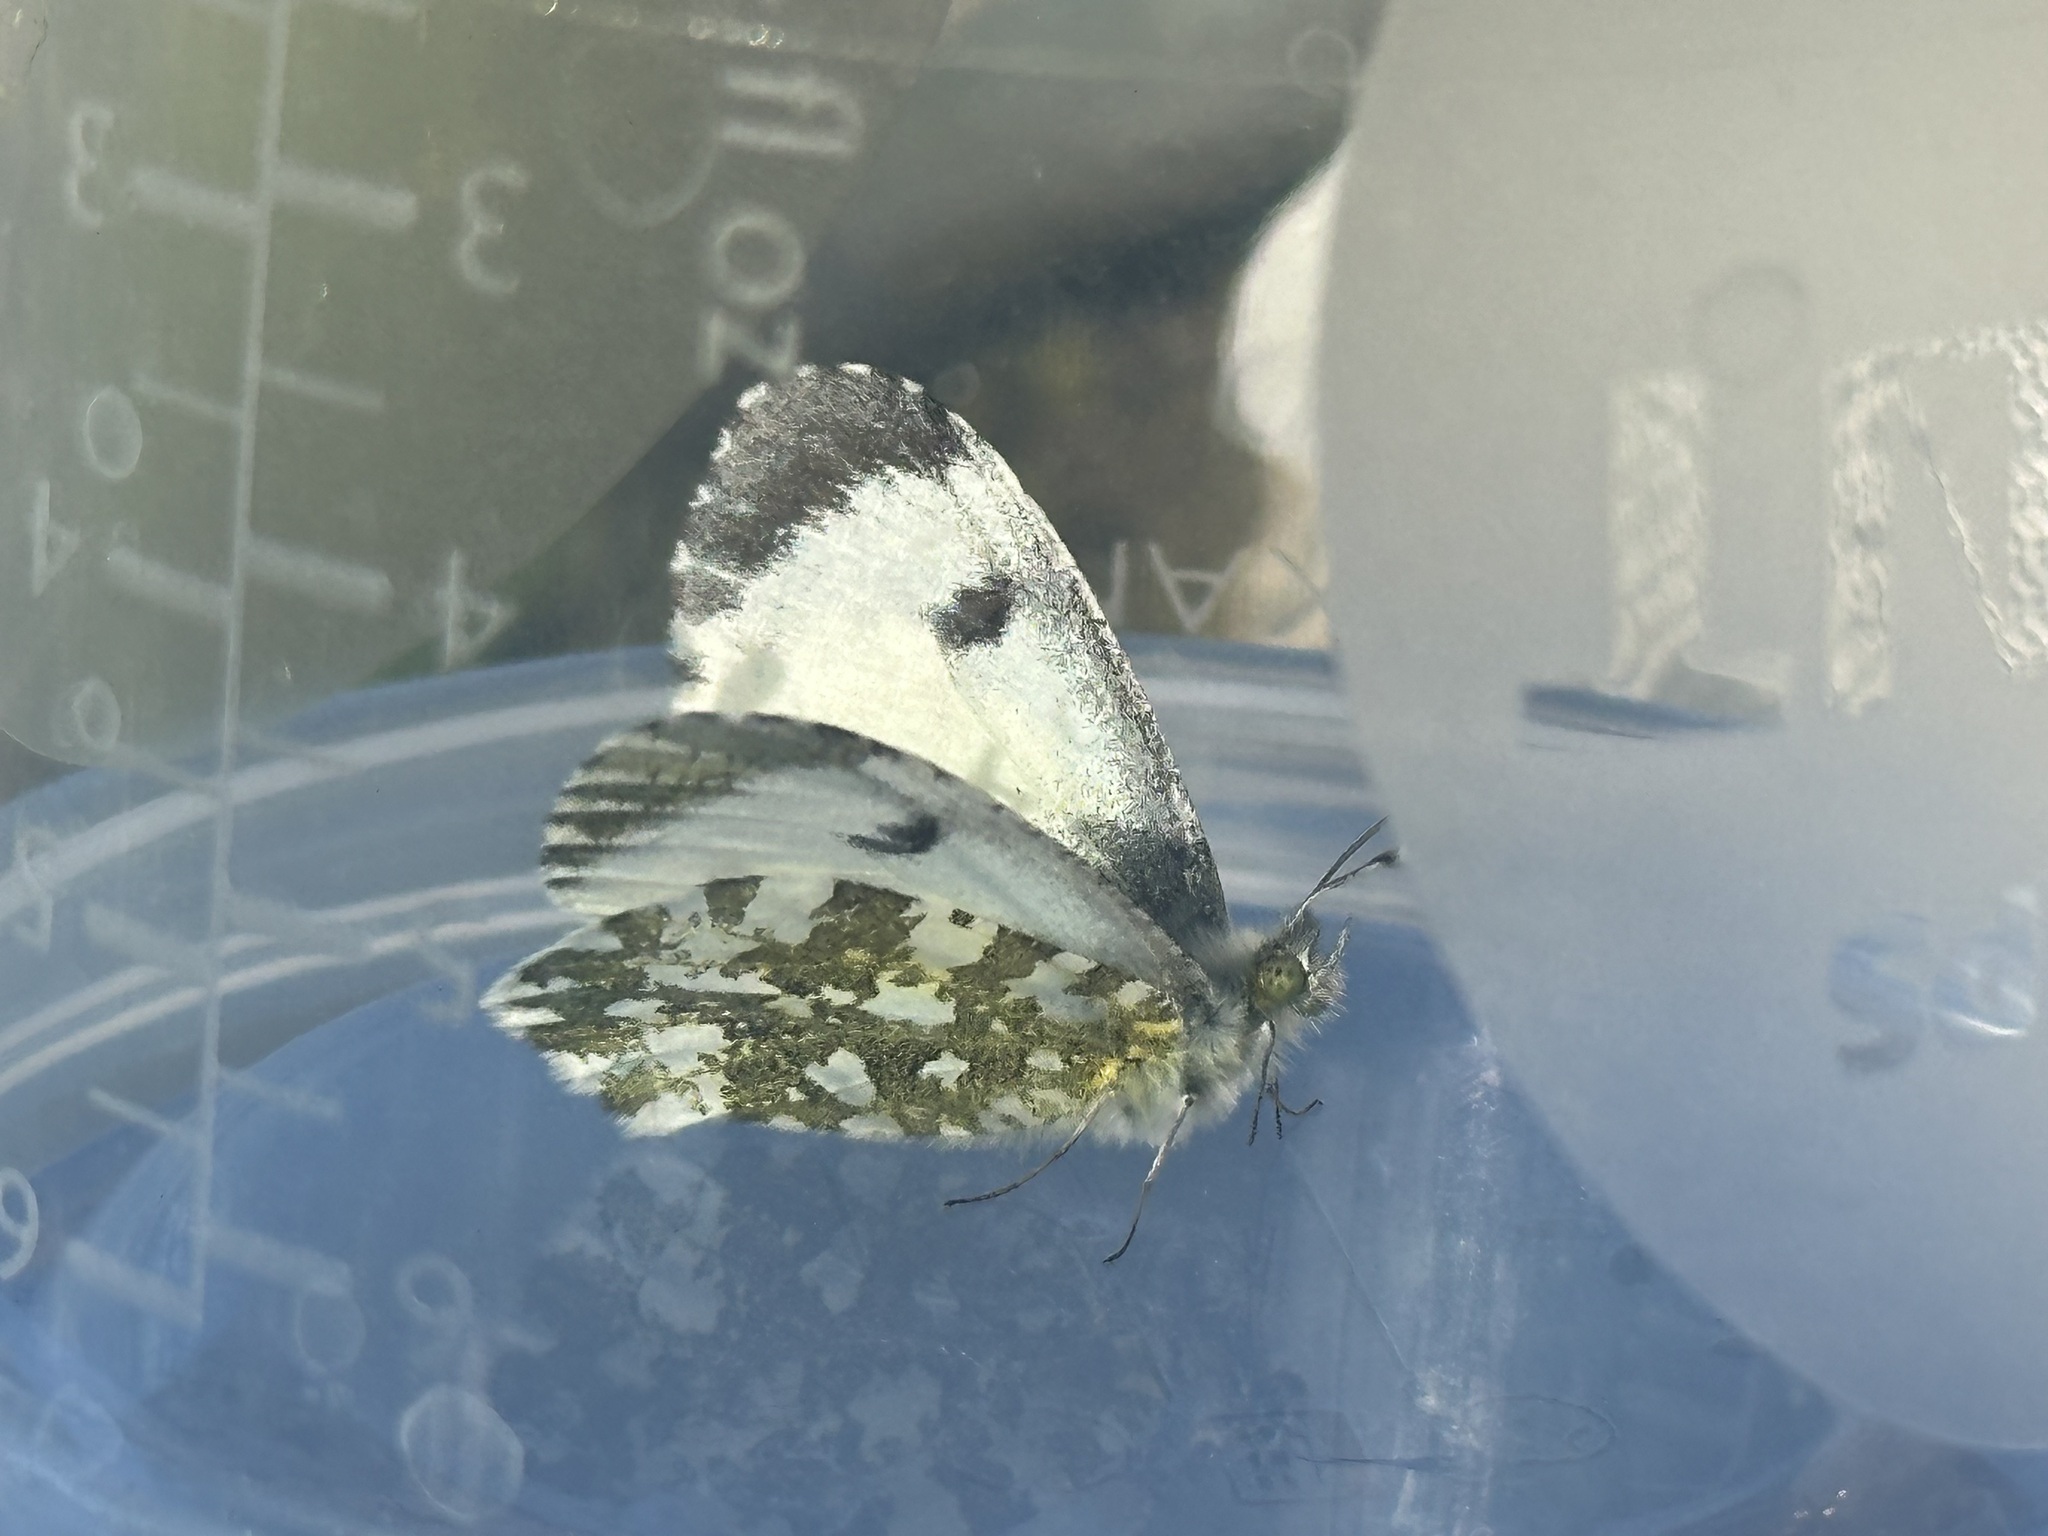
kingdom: Animalia
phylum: Arthropoda
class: Insecta
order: Lepidoptera
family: Pieridae
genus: Anthocharis
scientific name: Anthocharis cardamines
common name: Orange-tip
